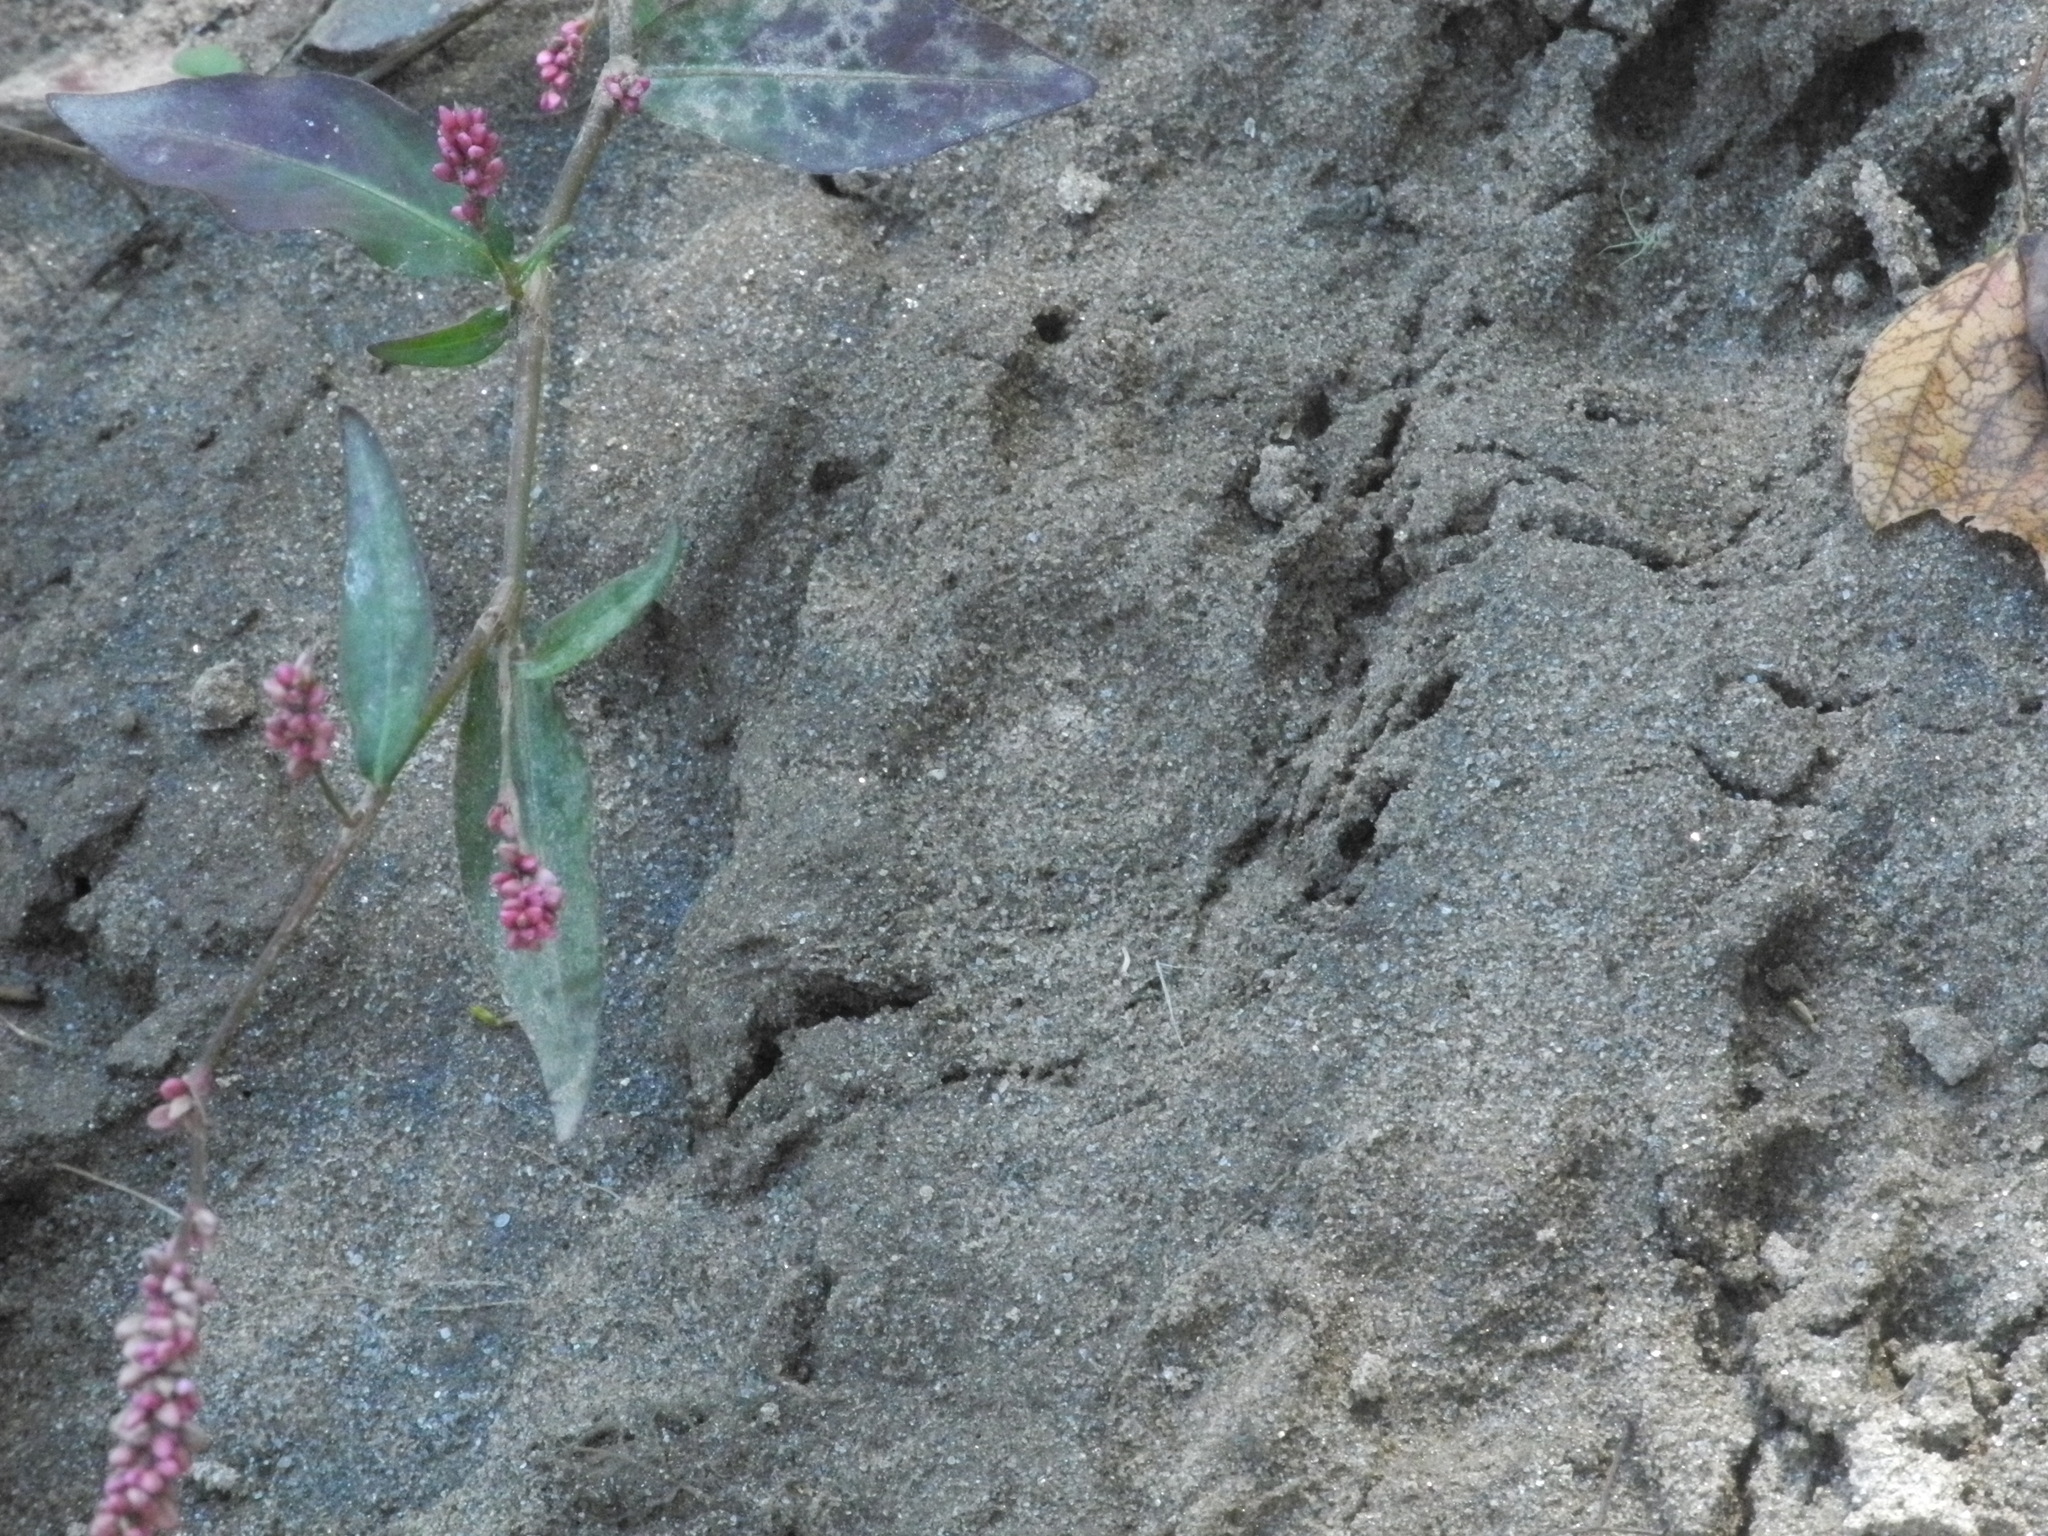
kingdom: Animalia
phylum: Chordata
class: Mammalia
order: Carnivora
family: Procyonidae
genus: Procyon
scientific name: Procyon lotor
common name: Raccoon
